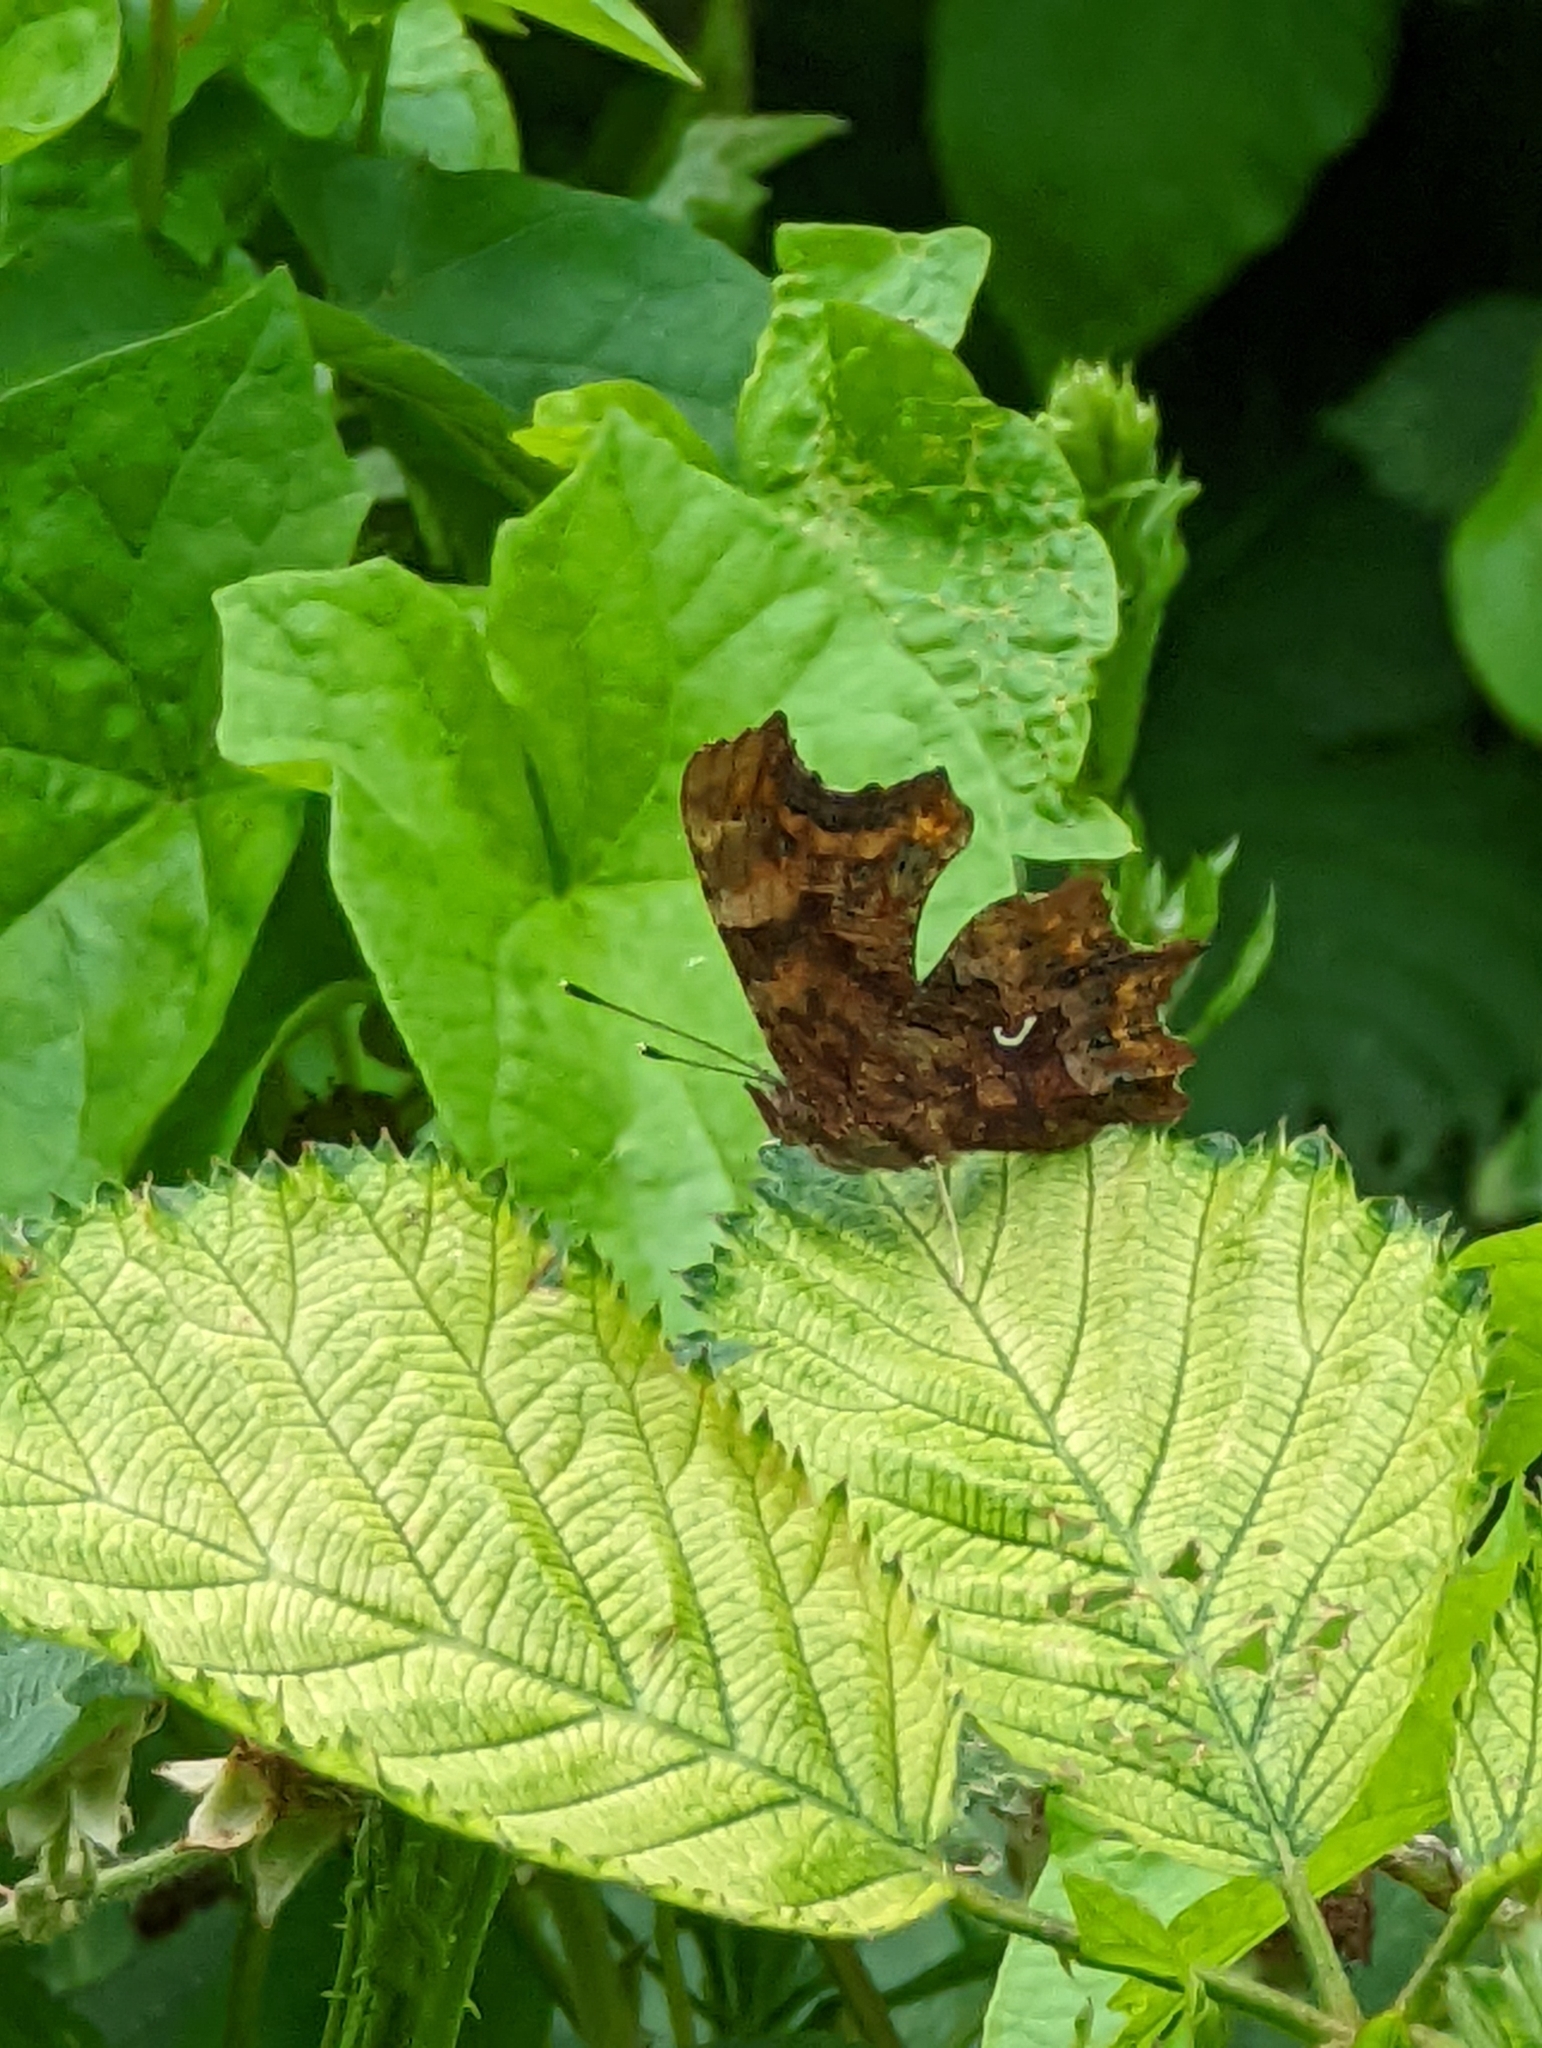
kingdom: Animalia
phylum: Arthropoda
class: Insecta
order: Lepidoptera
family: Nymphalidae
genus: Polygonia
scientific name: Polygonia c-album
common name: Comma
